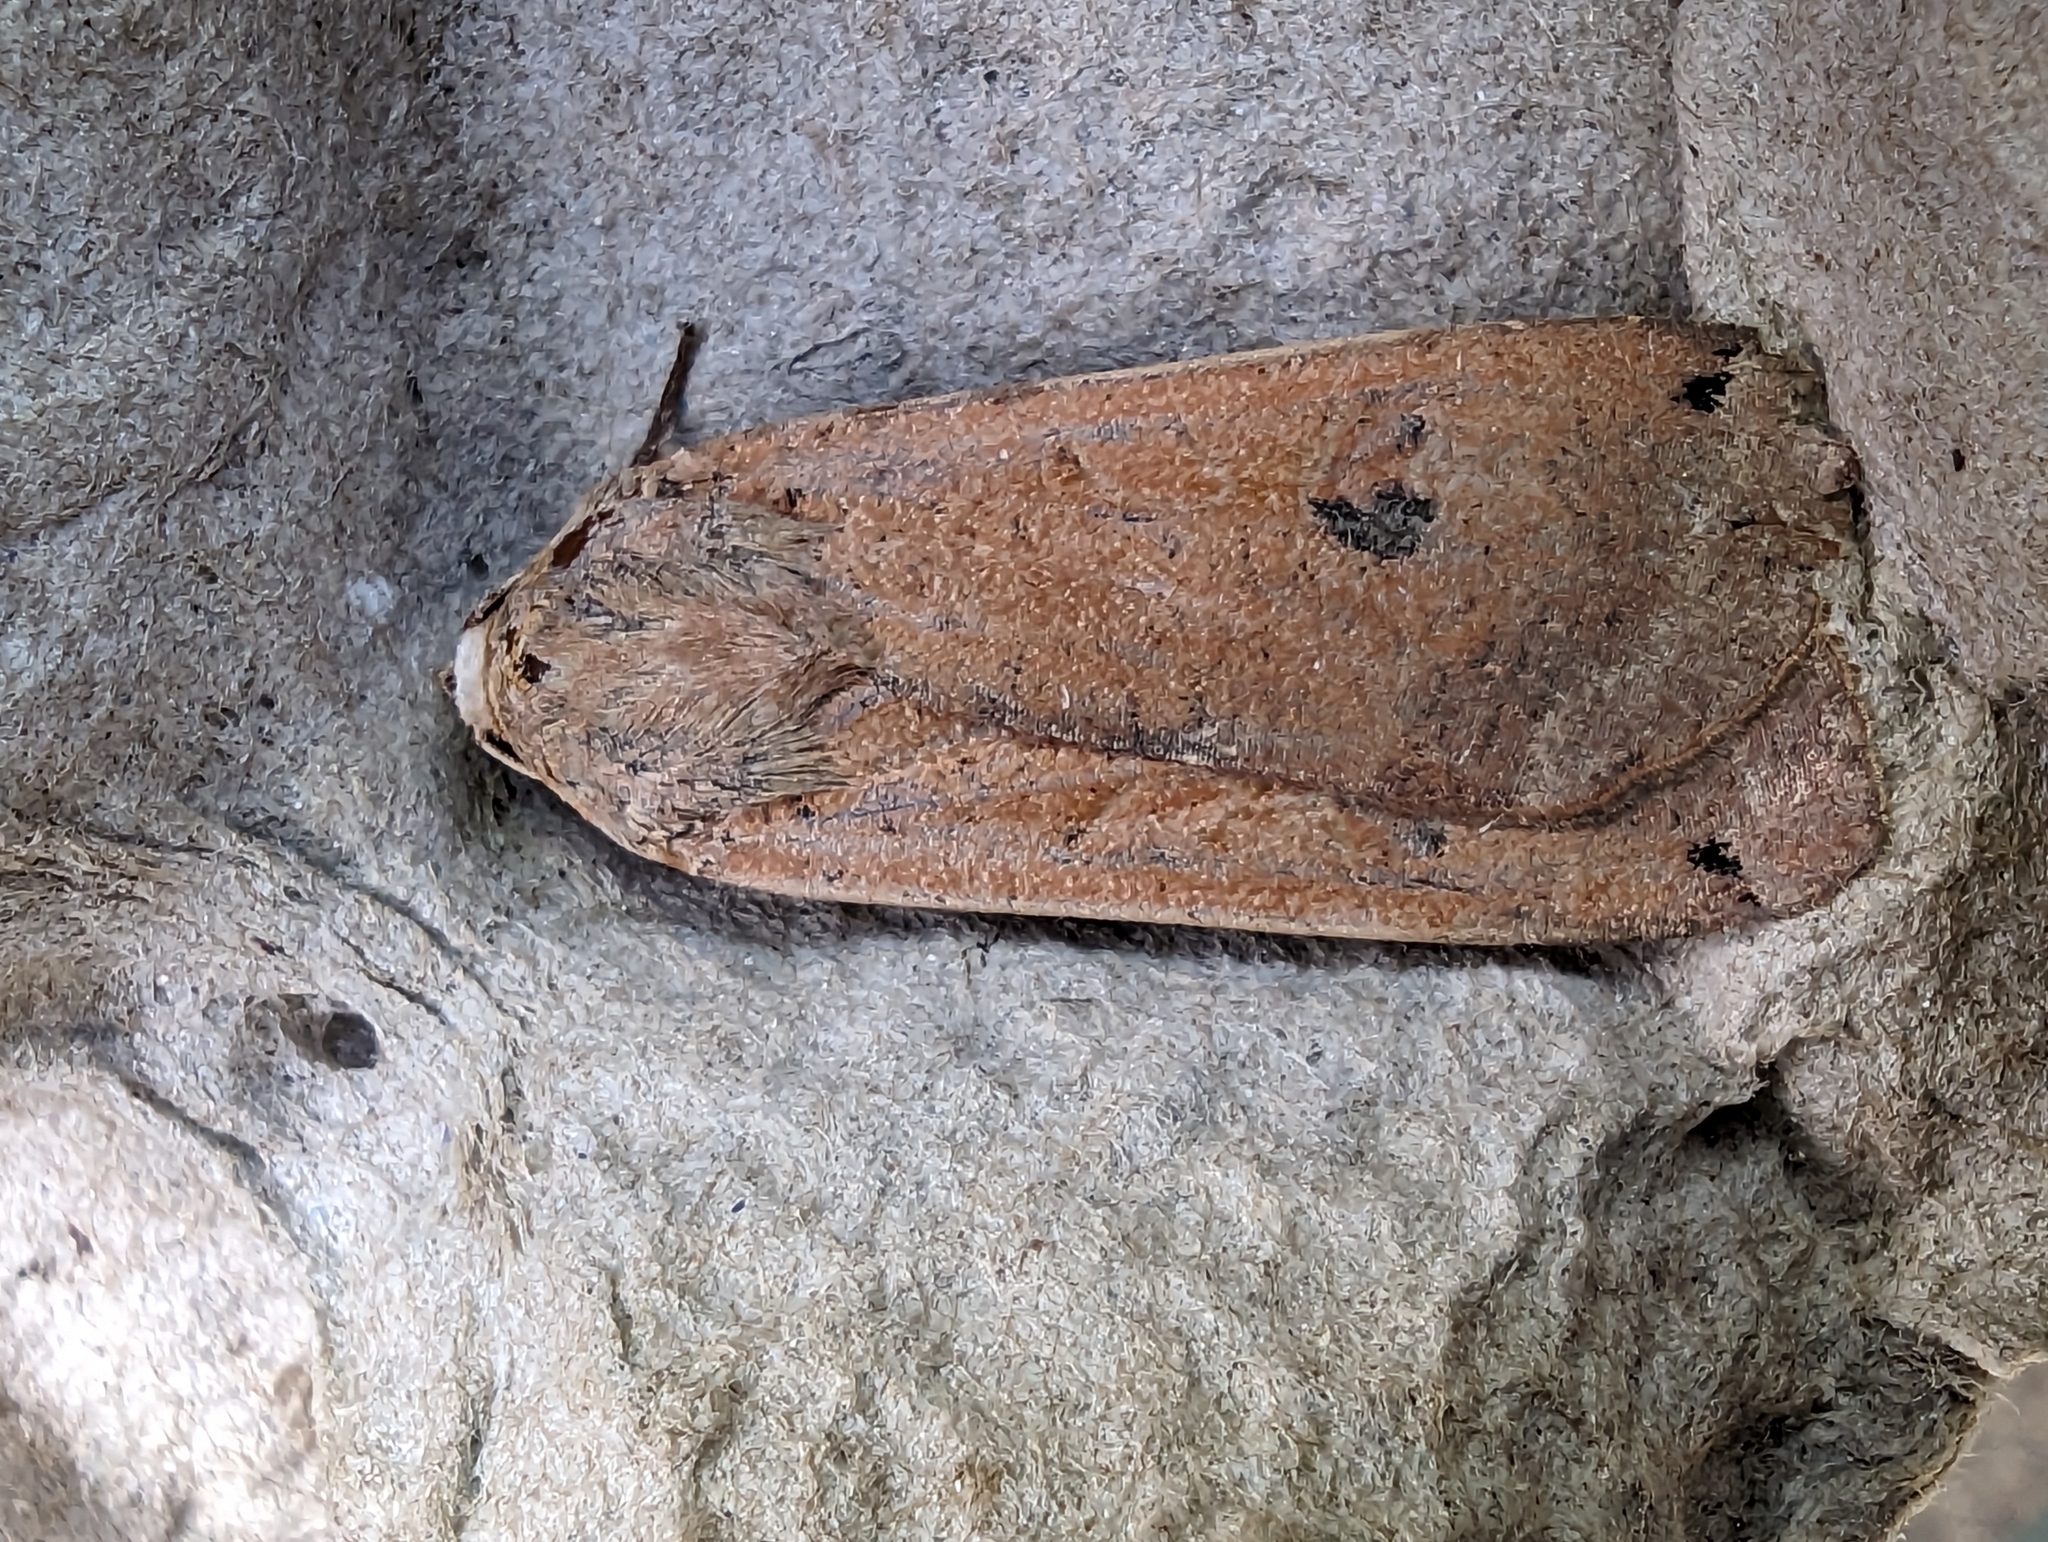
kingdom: Animalia
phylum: Arthropoda
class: Insecta
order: Lepidoptera
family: Noctuidae
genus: Noctua
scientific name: Noctua pronuba
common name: Large yellow underwing
